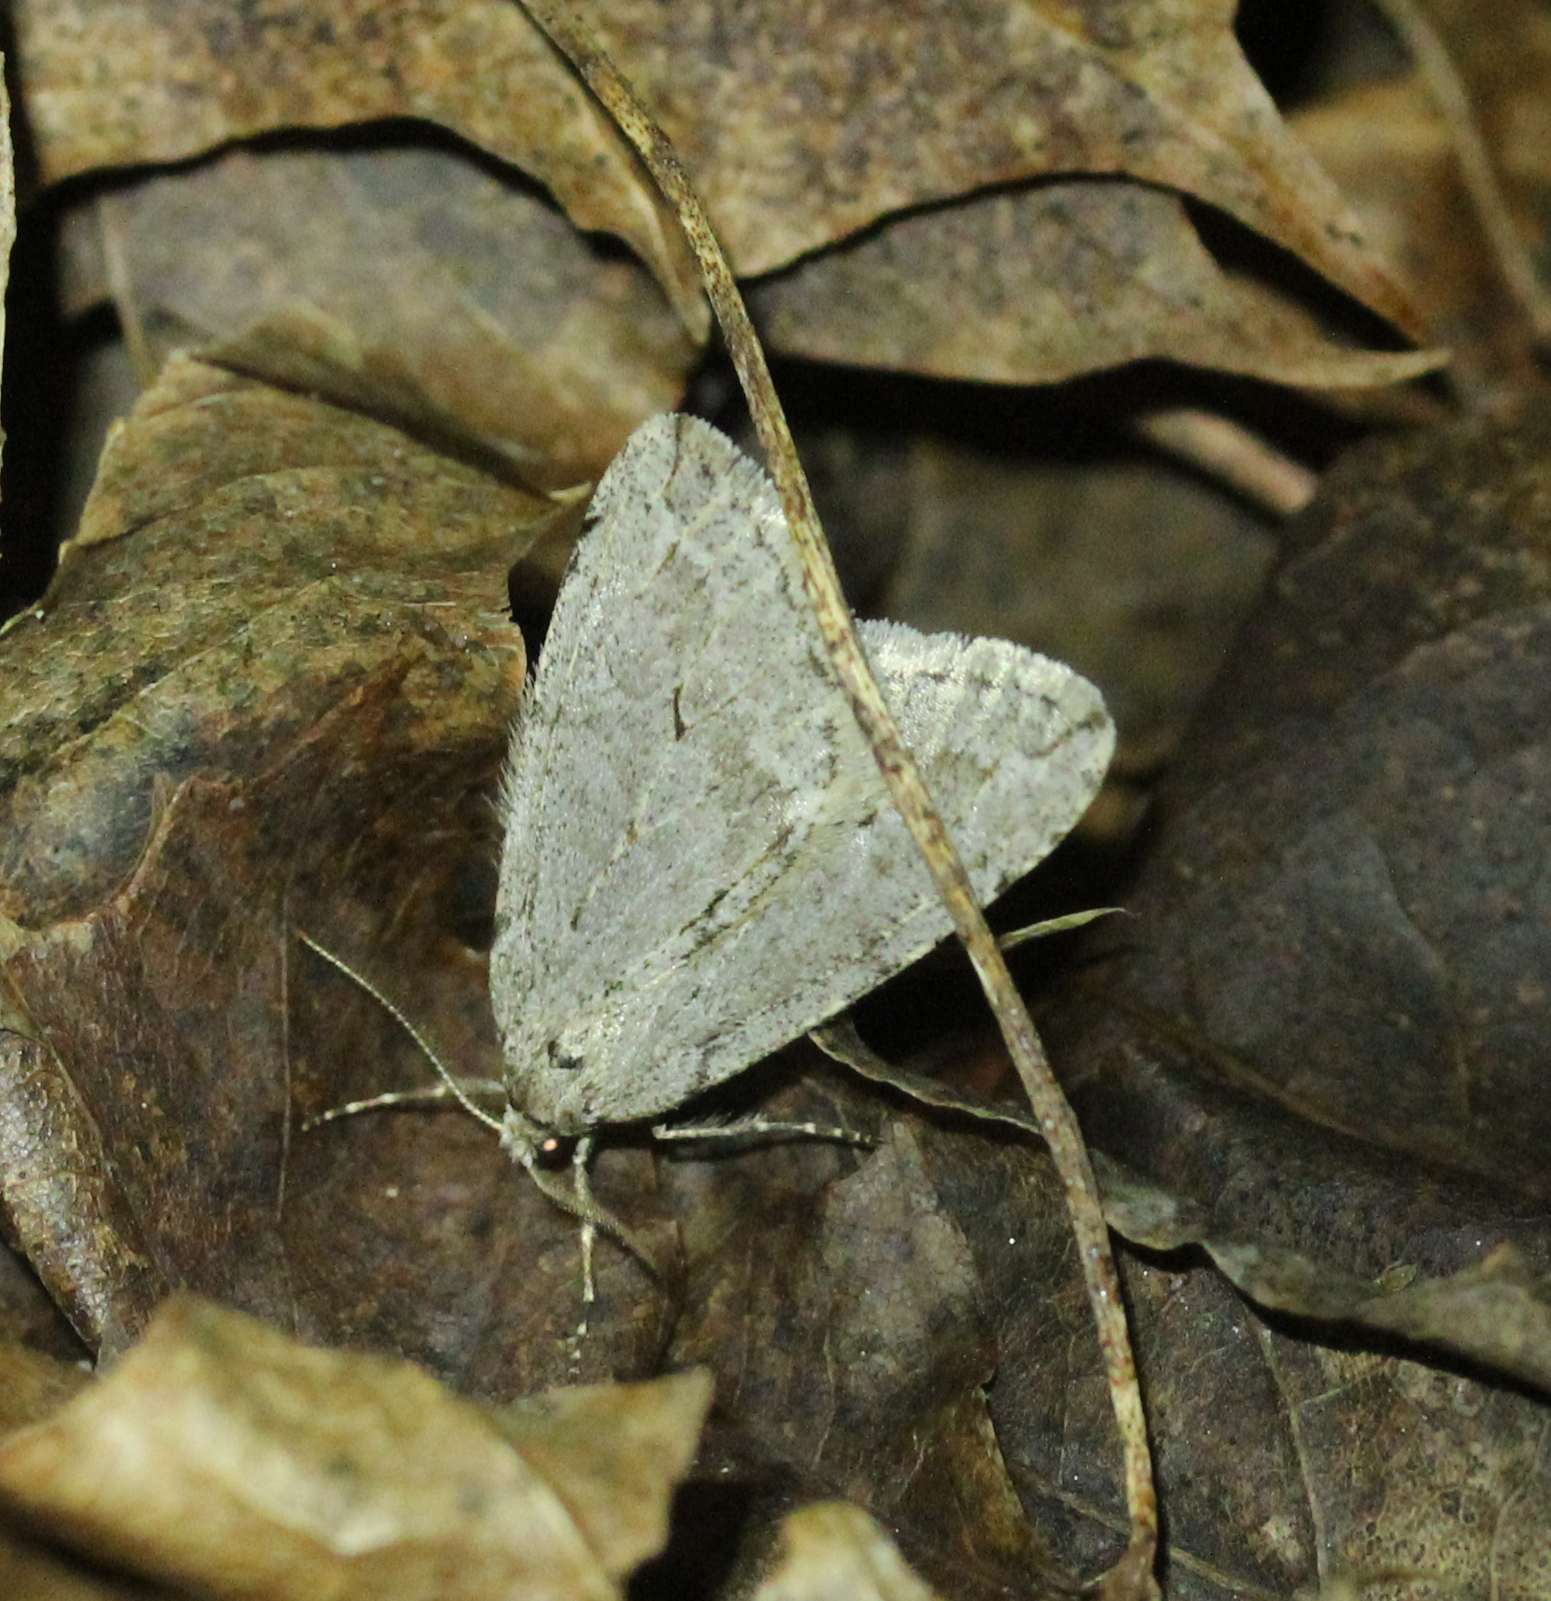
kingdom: Animalia
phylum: Arthropoda
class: Insecta
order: Lepidoptera
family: Geometridae
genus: Paleacrita
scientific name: Paleacrita vernata
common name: Spring cankerworm
